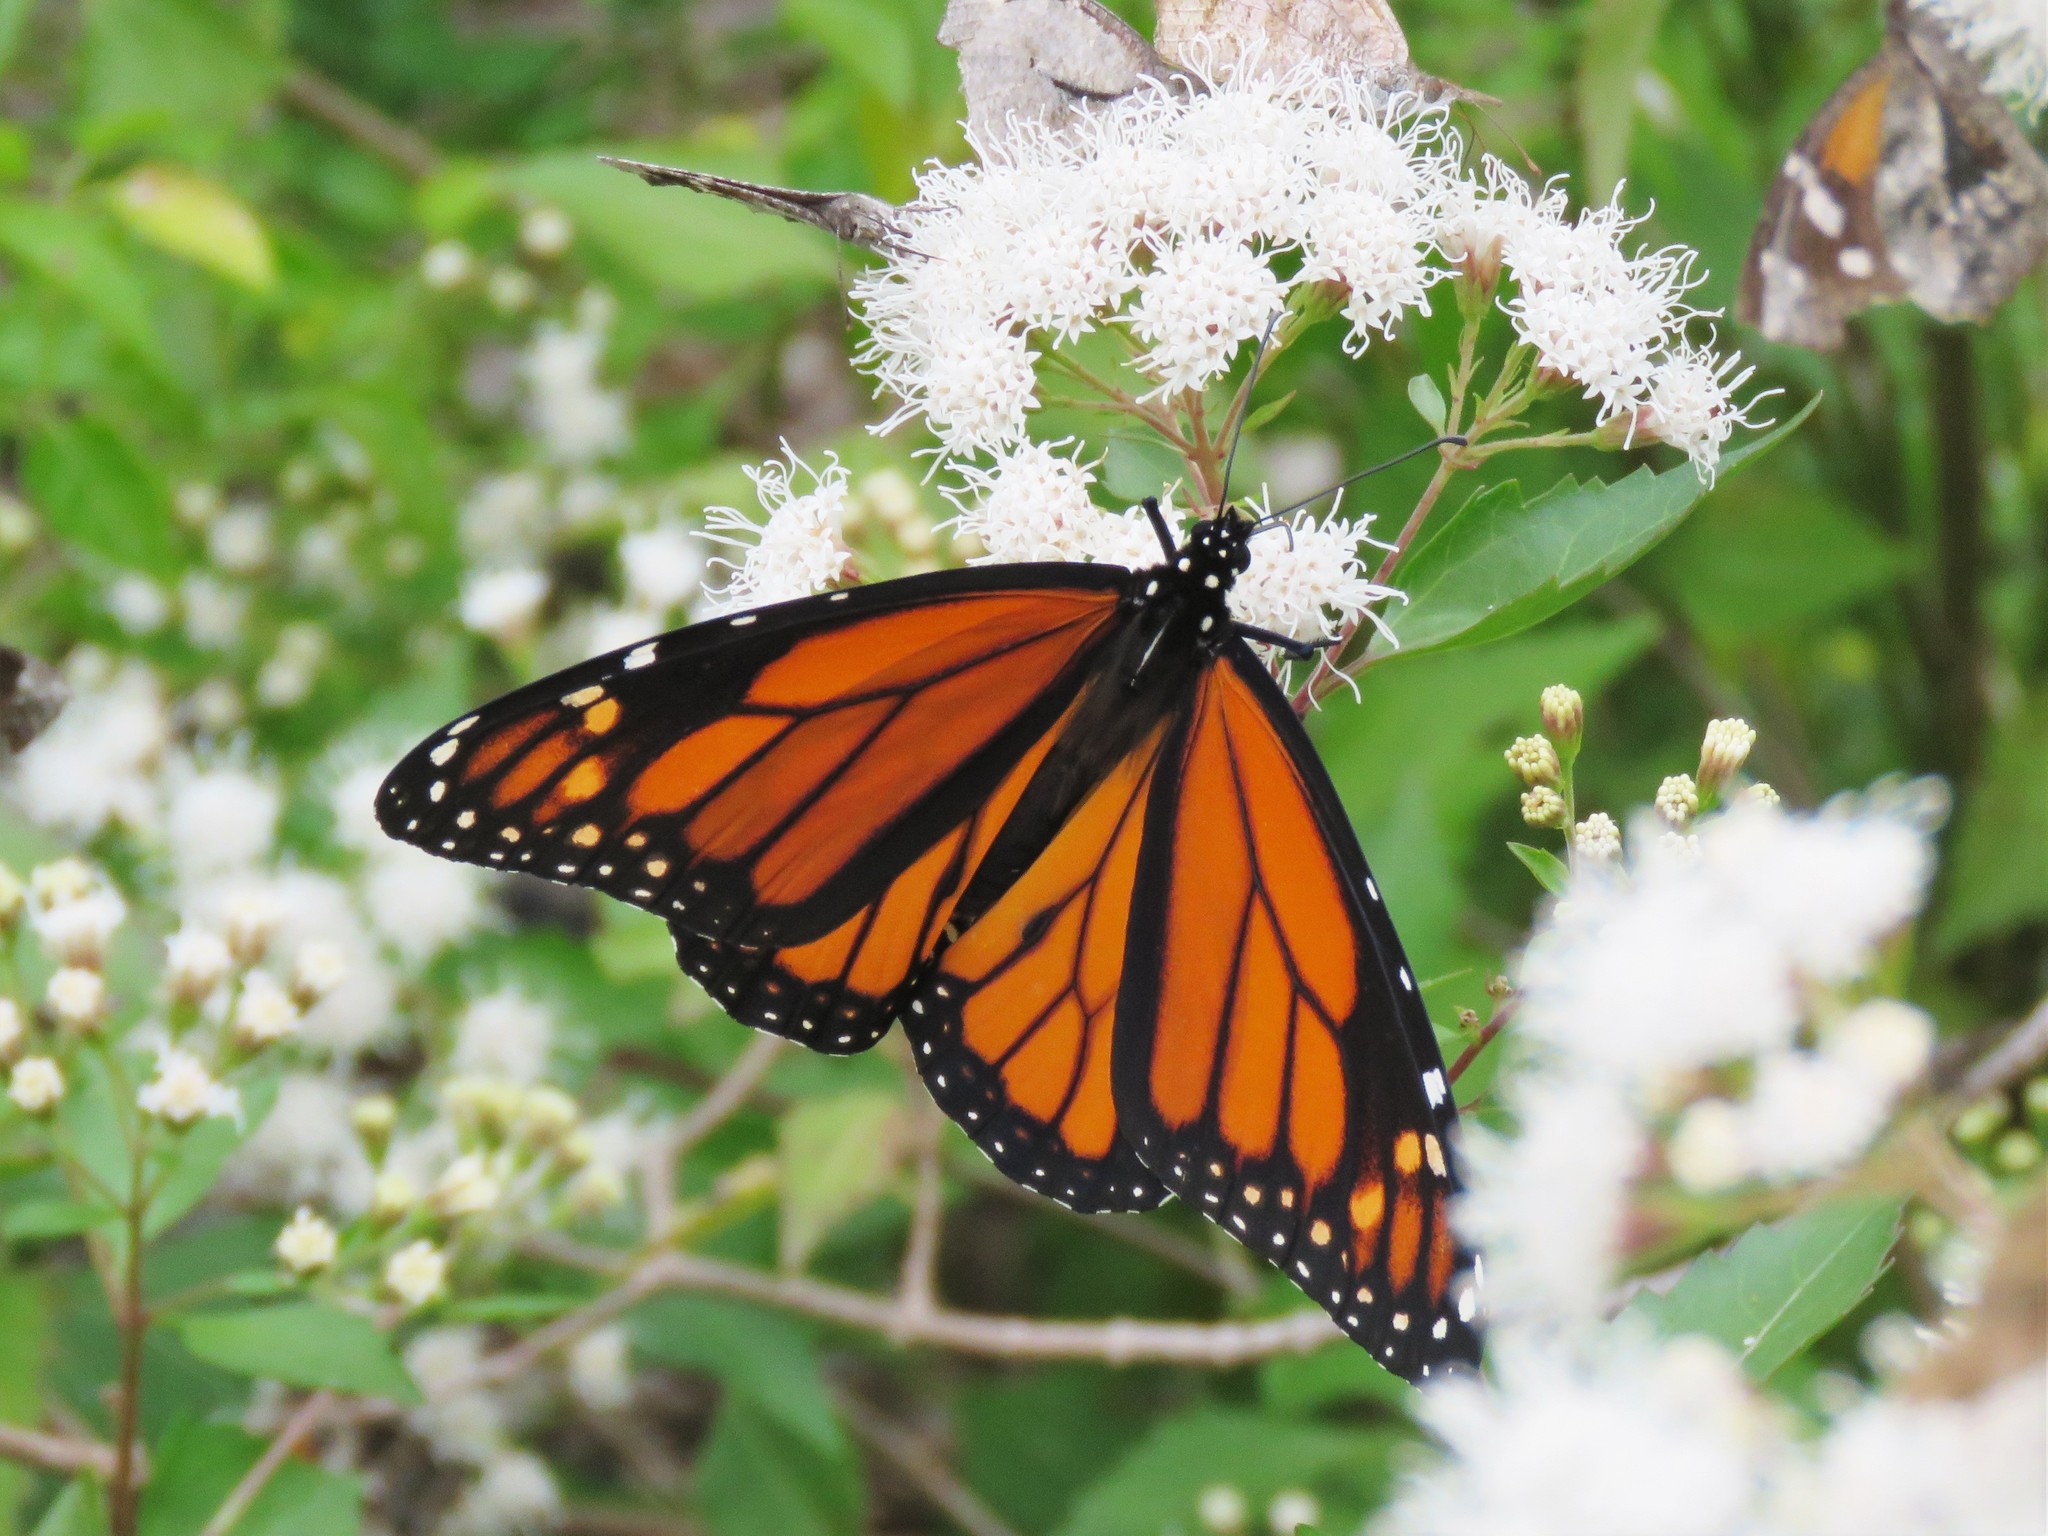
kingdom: Animalia
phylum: Arthropoda
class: Insecta
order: Lepidoptera
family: Nymphalidae
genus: Danaus
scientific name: Danaus plexippus
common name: Monarch
